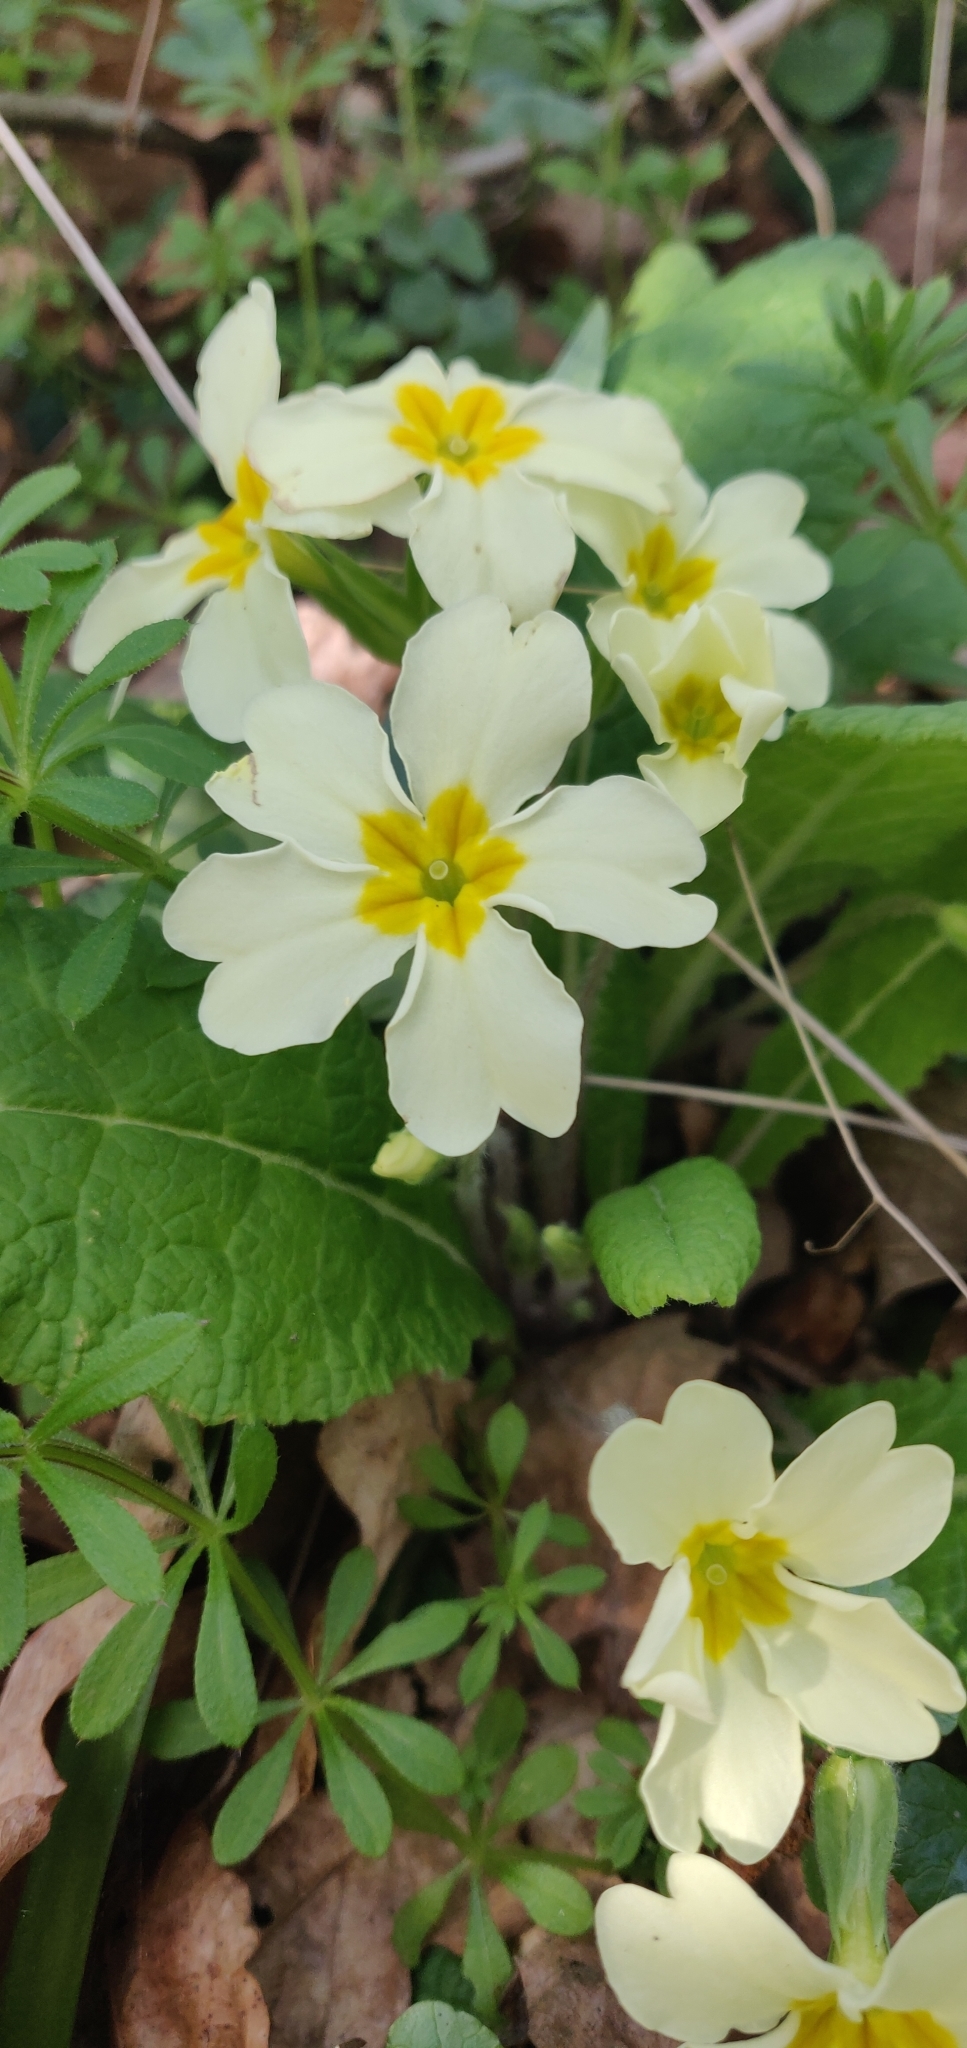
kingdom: Plantae
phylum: Tracheophyta
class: Magnoliopsida
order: Ericales
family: Primulaceae
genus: Primula
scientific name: Primula vulgaris
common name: Primrose
